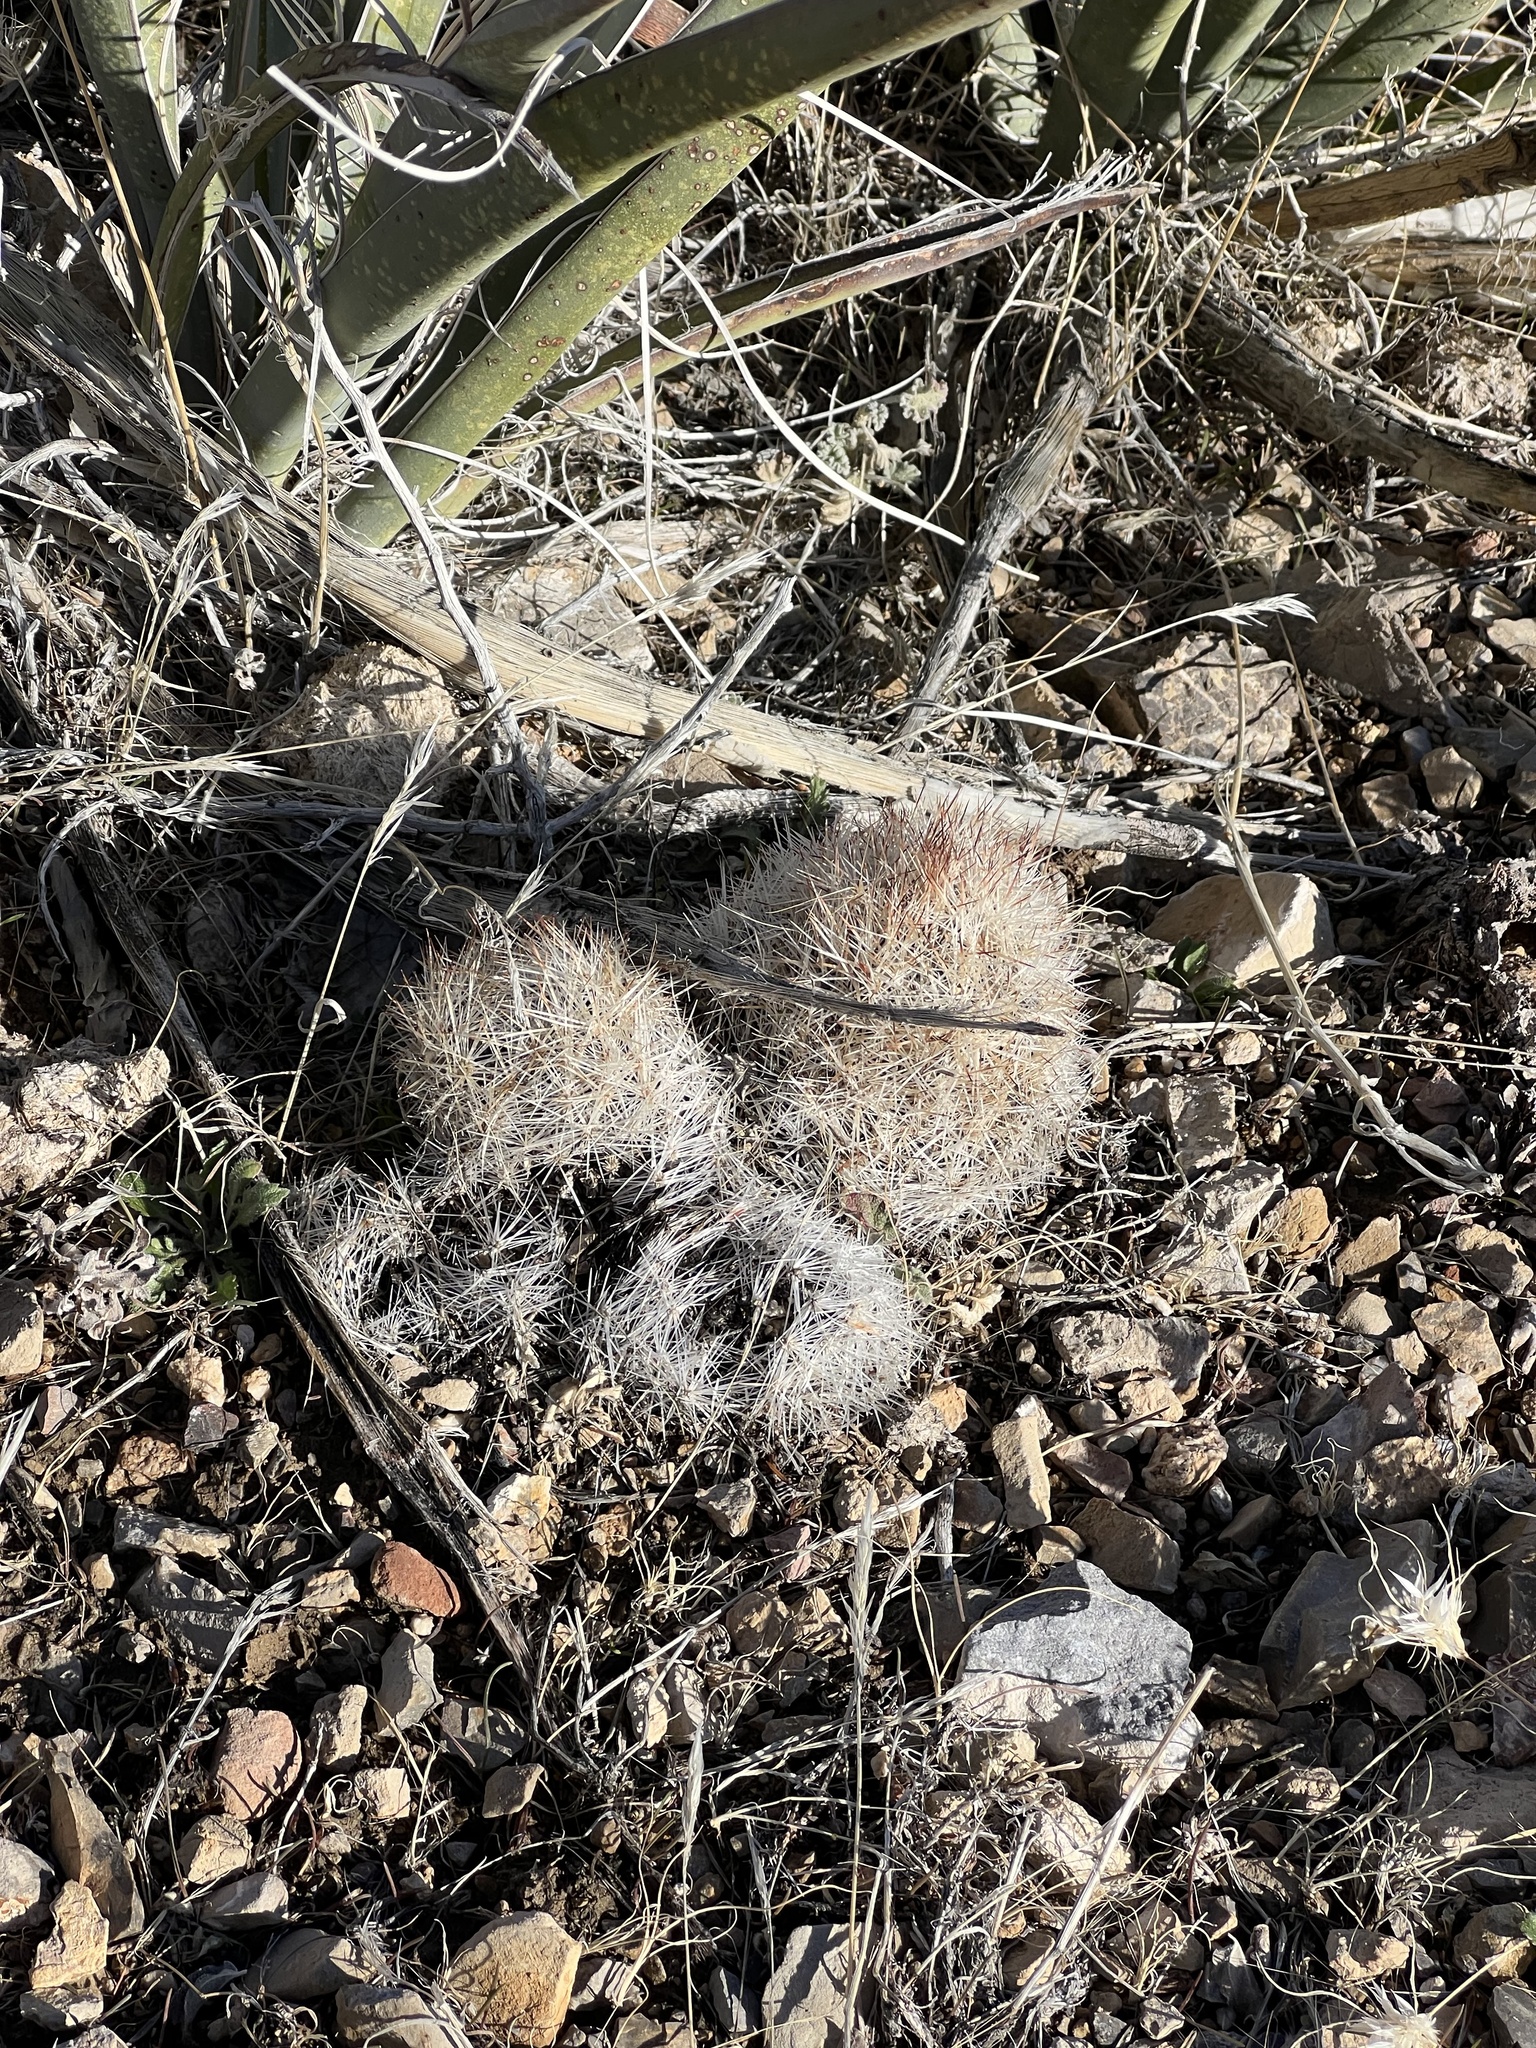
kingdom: Plantae
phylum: Tracheophyta
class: Magnoliopsida
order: Caryophyllales
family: Cactaceae
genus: Pelecyphora
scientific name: Pelecyphora dasyacantha
